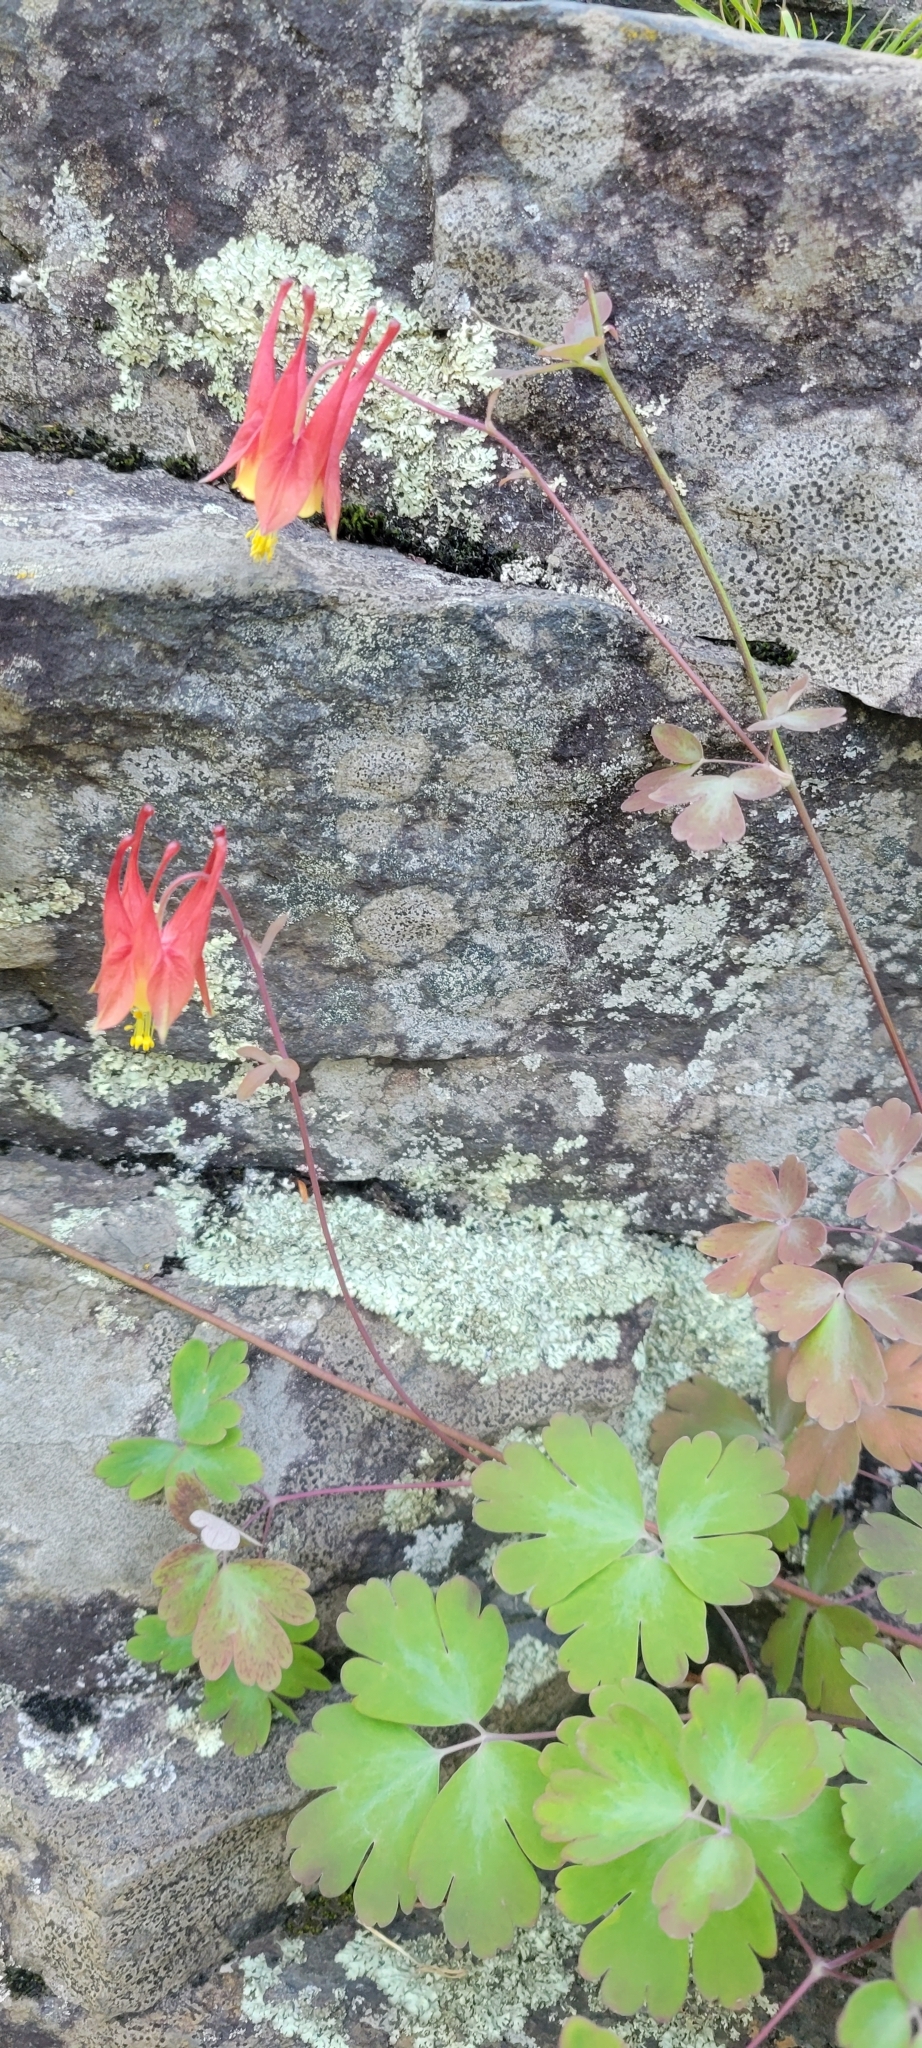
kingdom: Plantae
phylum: Tracheophyta
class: Magnoliopsida
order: Ranunculales
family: Ranunculaceae
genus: Aquilegia
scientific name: Aquilegia canadensis
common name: American columbine
